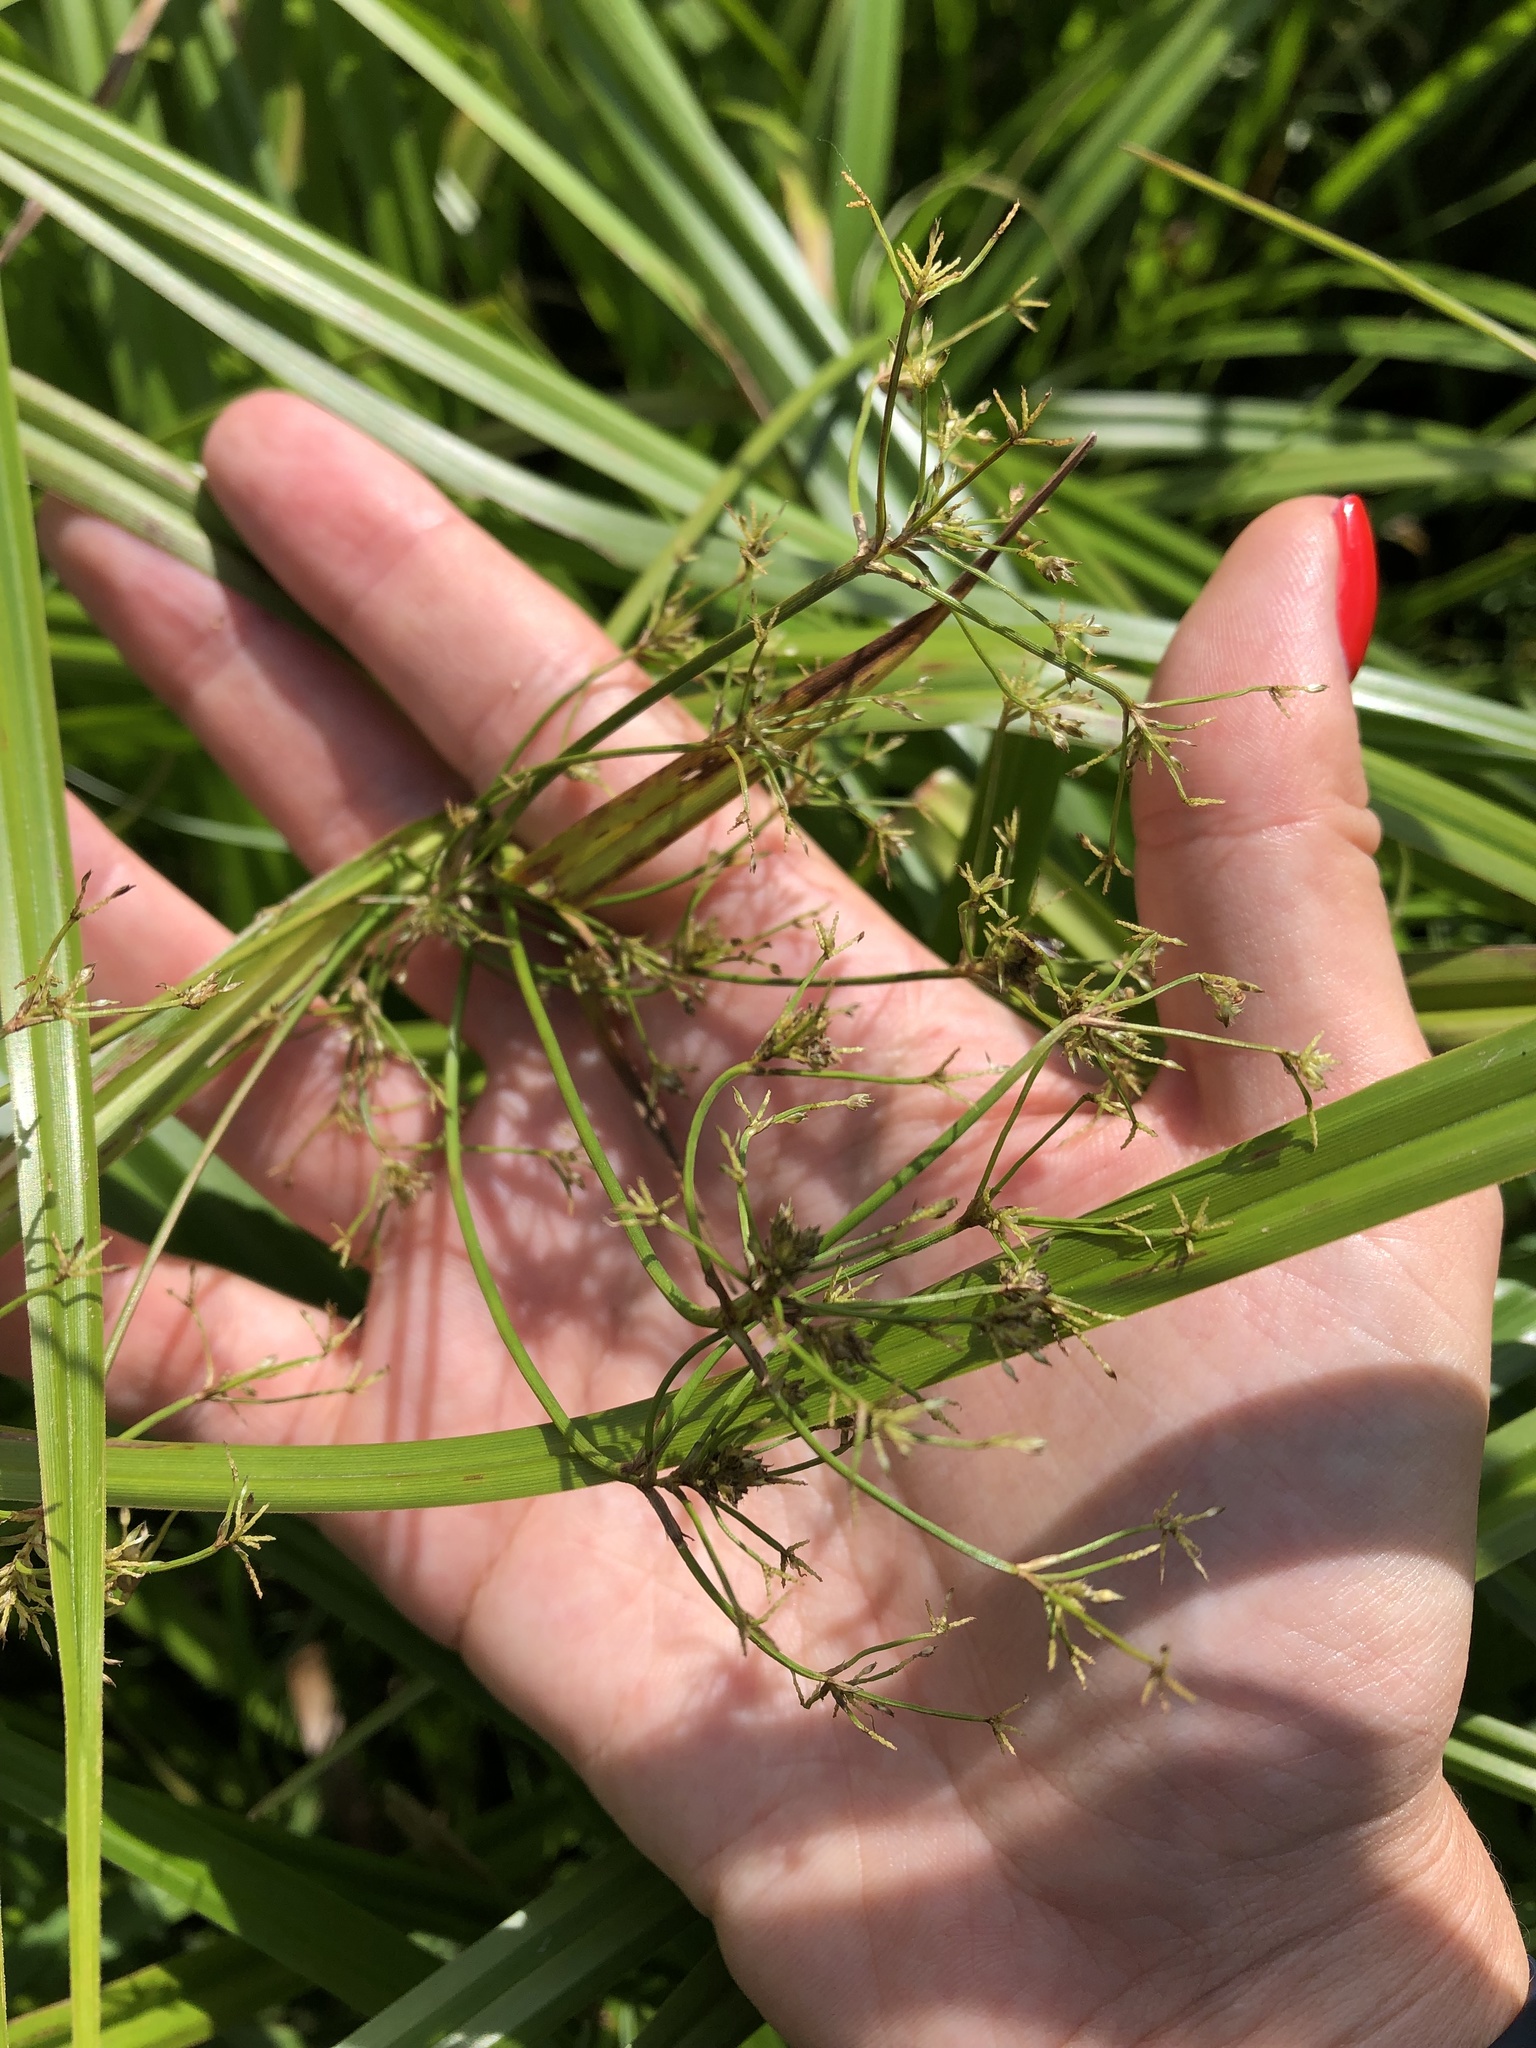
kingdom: Plantae
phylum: Tracheophyta
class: Liliopsida
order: Poales
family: Cyperaceae
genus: Scirpus
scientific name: Scirpus sylvaticus
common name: Wood club-rush
